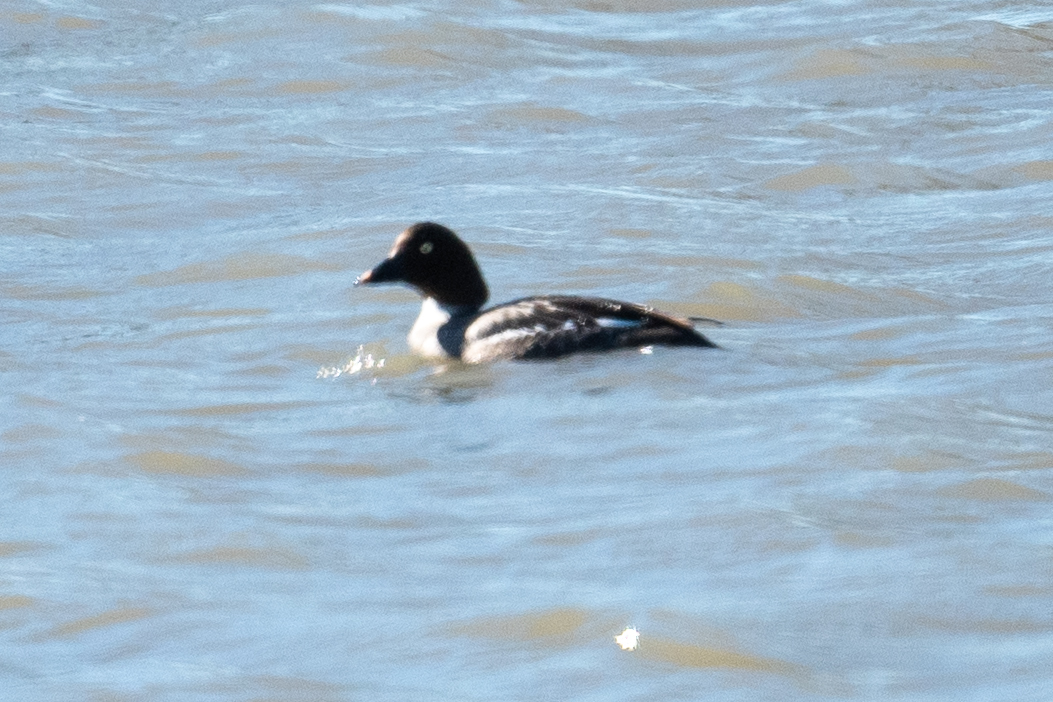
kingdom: Animalia
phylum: Chordata
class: Aves
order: Anseriformes
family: Anatidae
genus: Bucephala
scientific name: Bucephala clangula
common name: Common goldeneye
